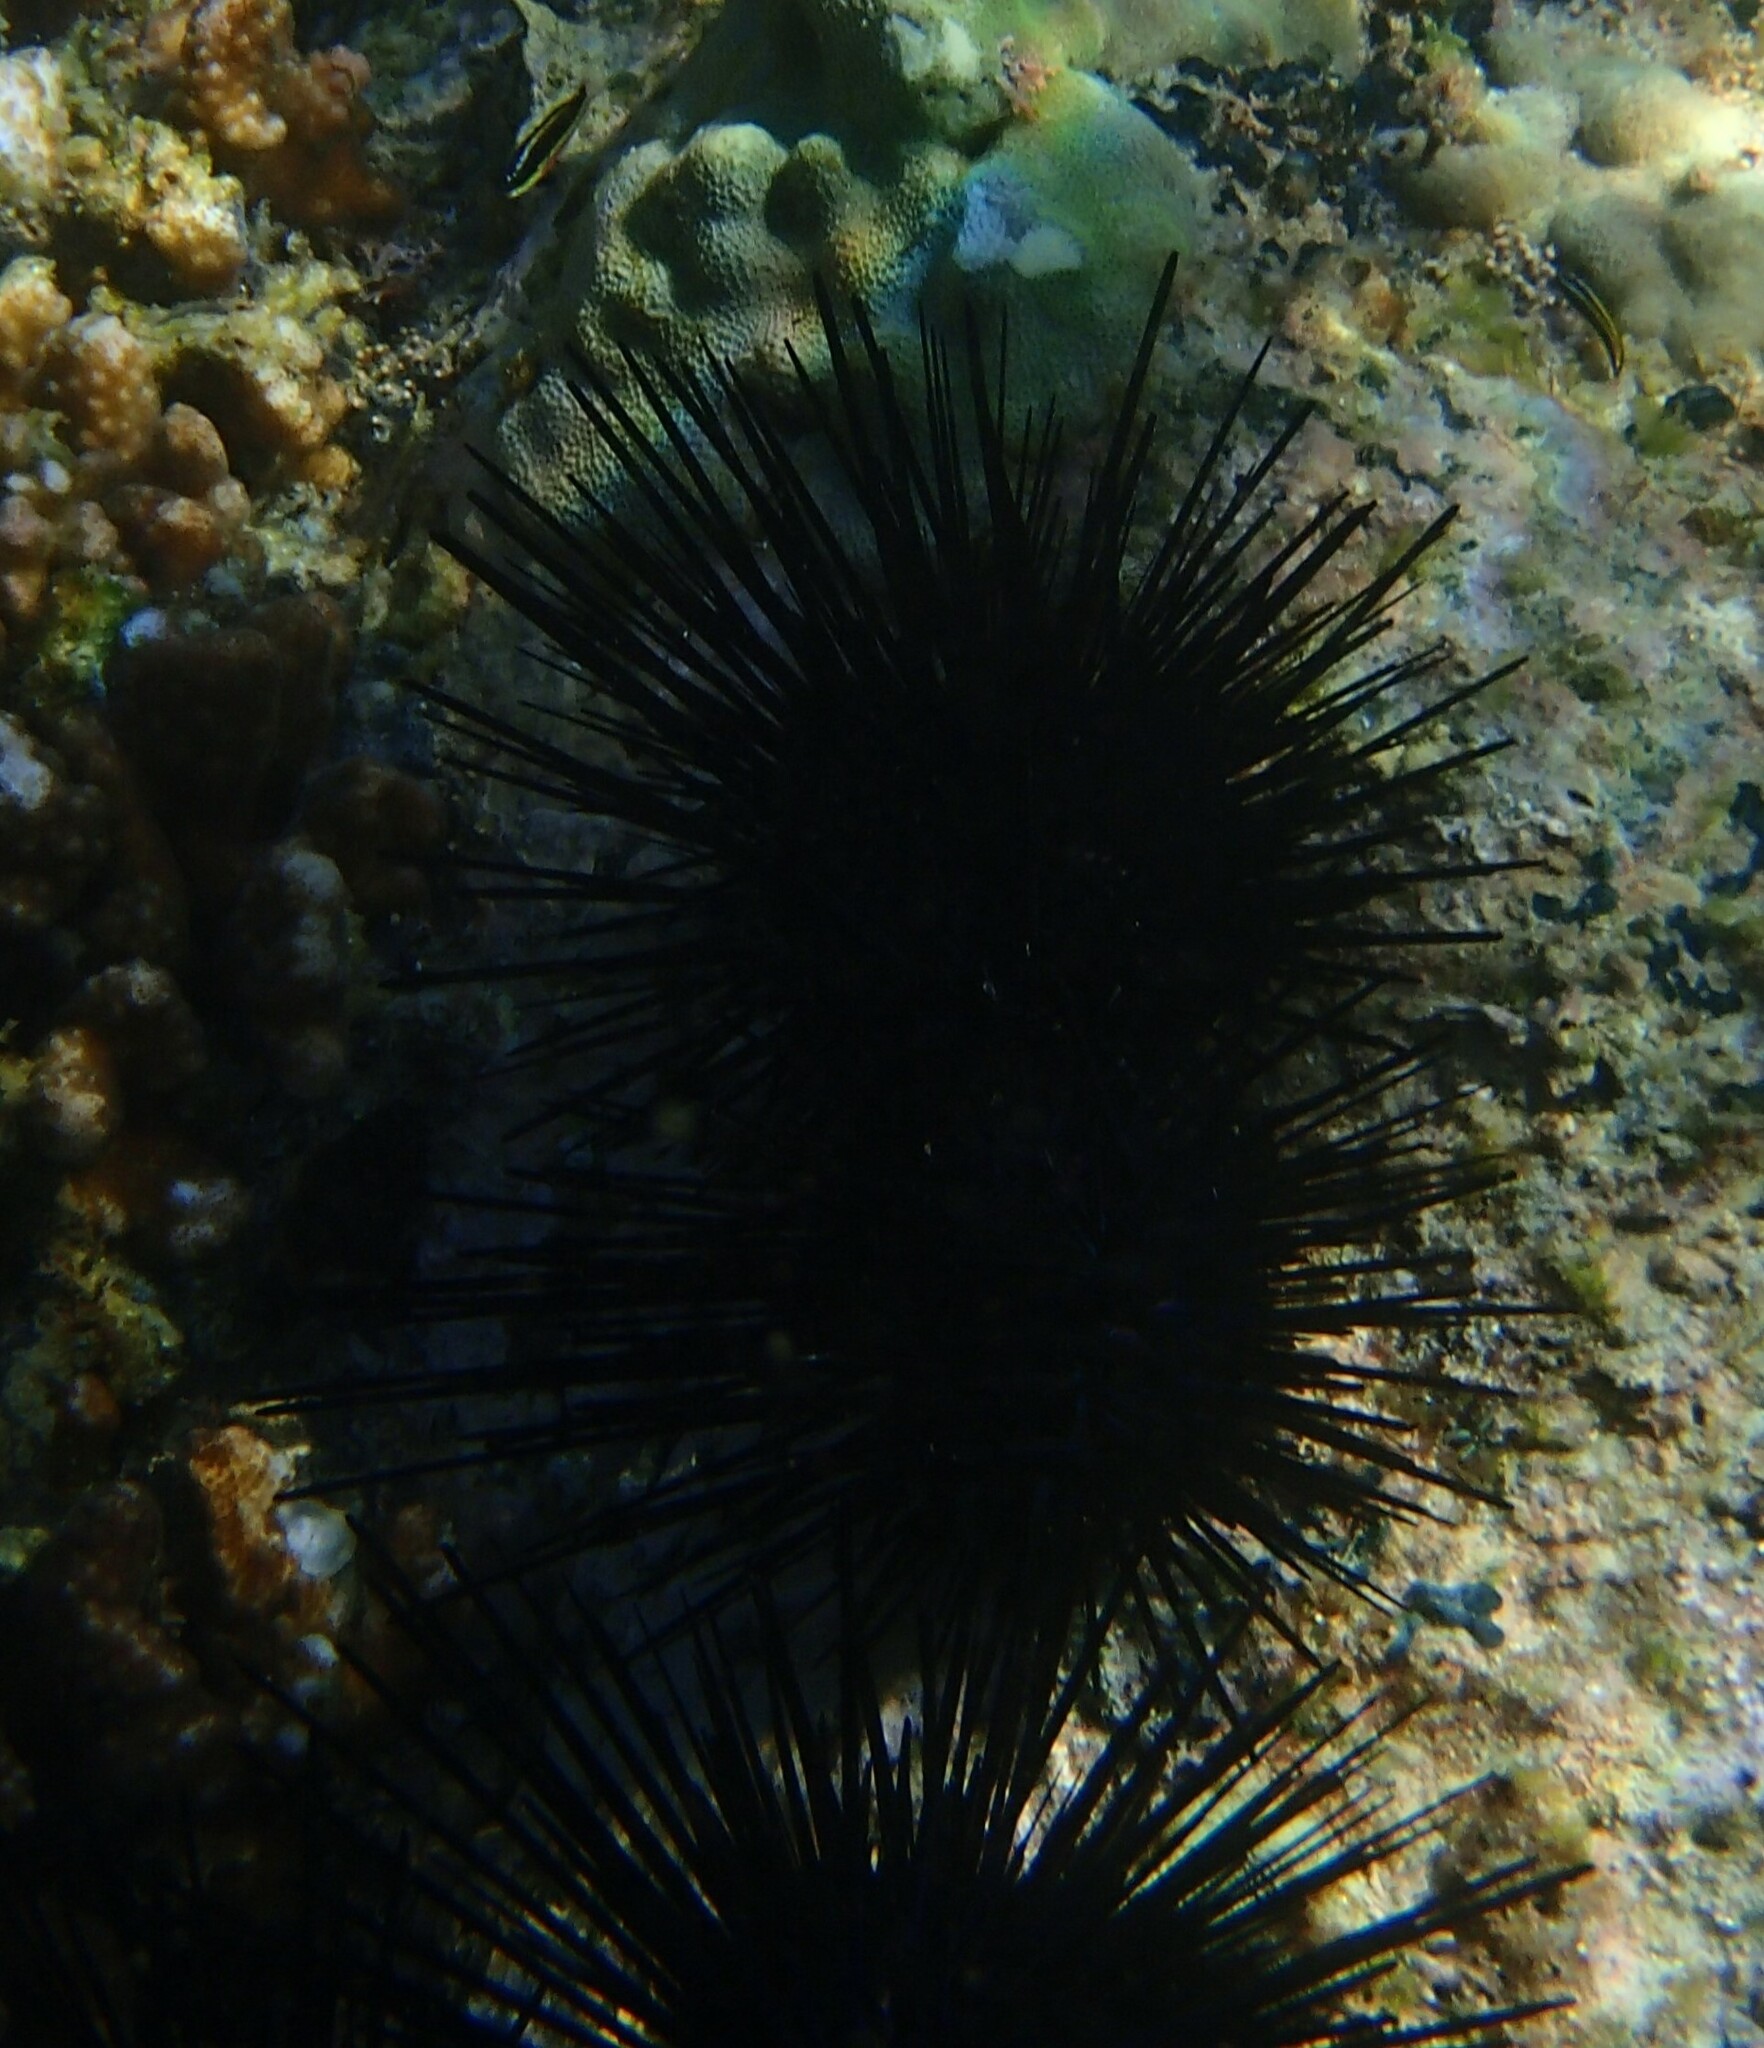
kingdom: Animalia
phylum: Echinodermata
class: Echinoidea
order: Camarodonta
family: Echinometridae
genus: Echinometra
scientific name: Echinometra vanbrunti
